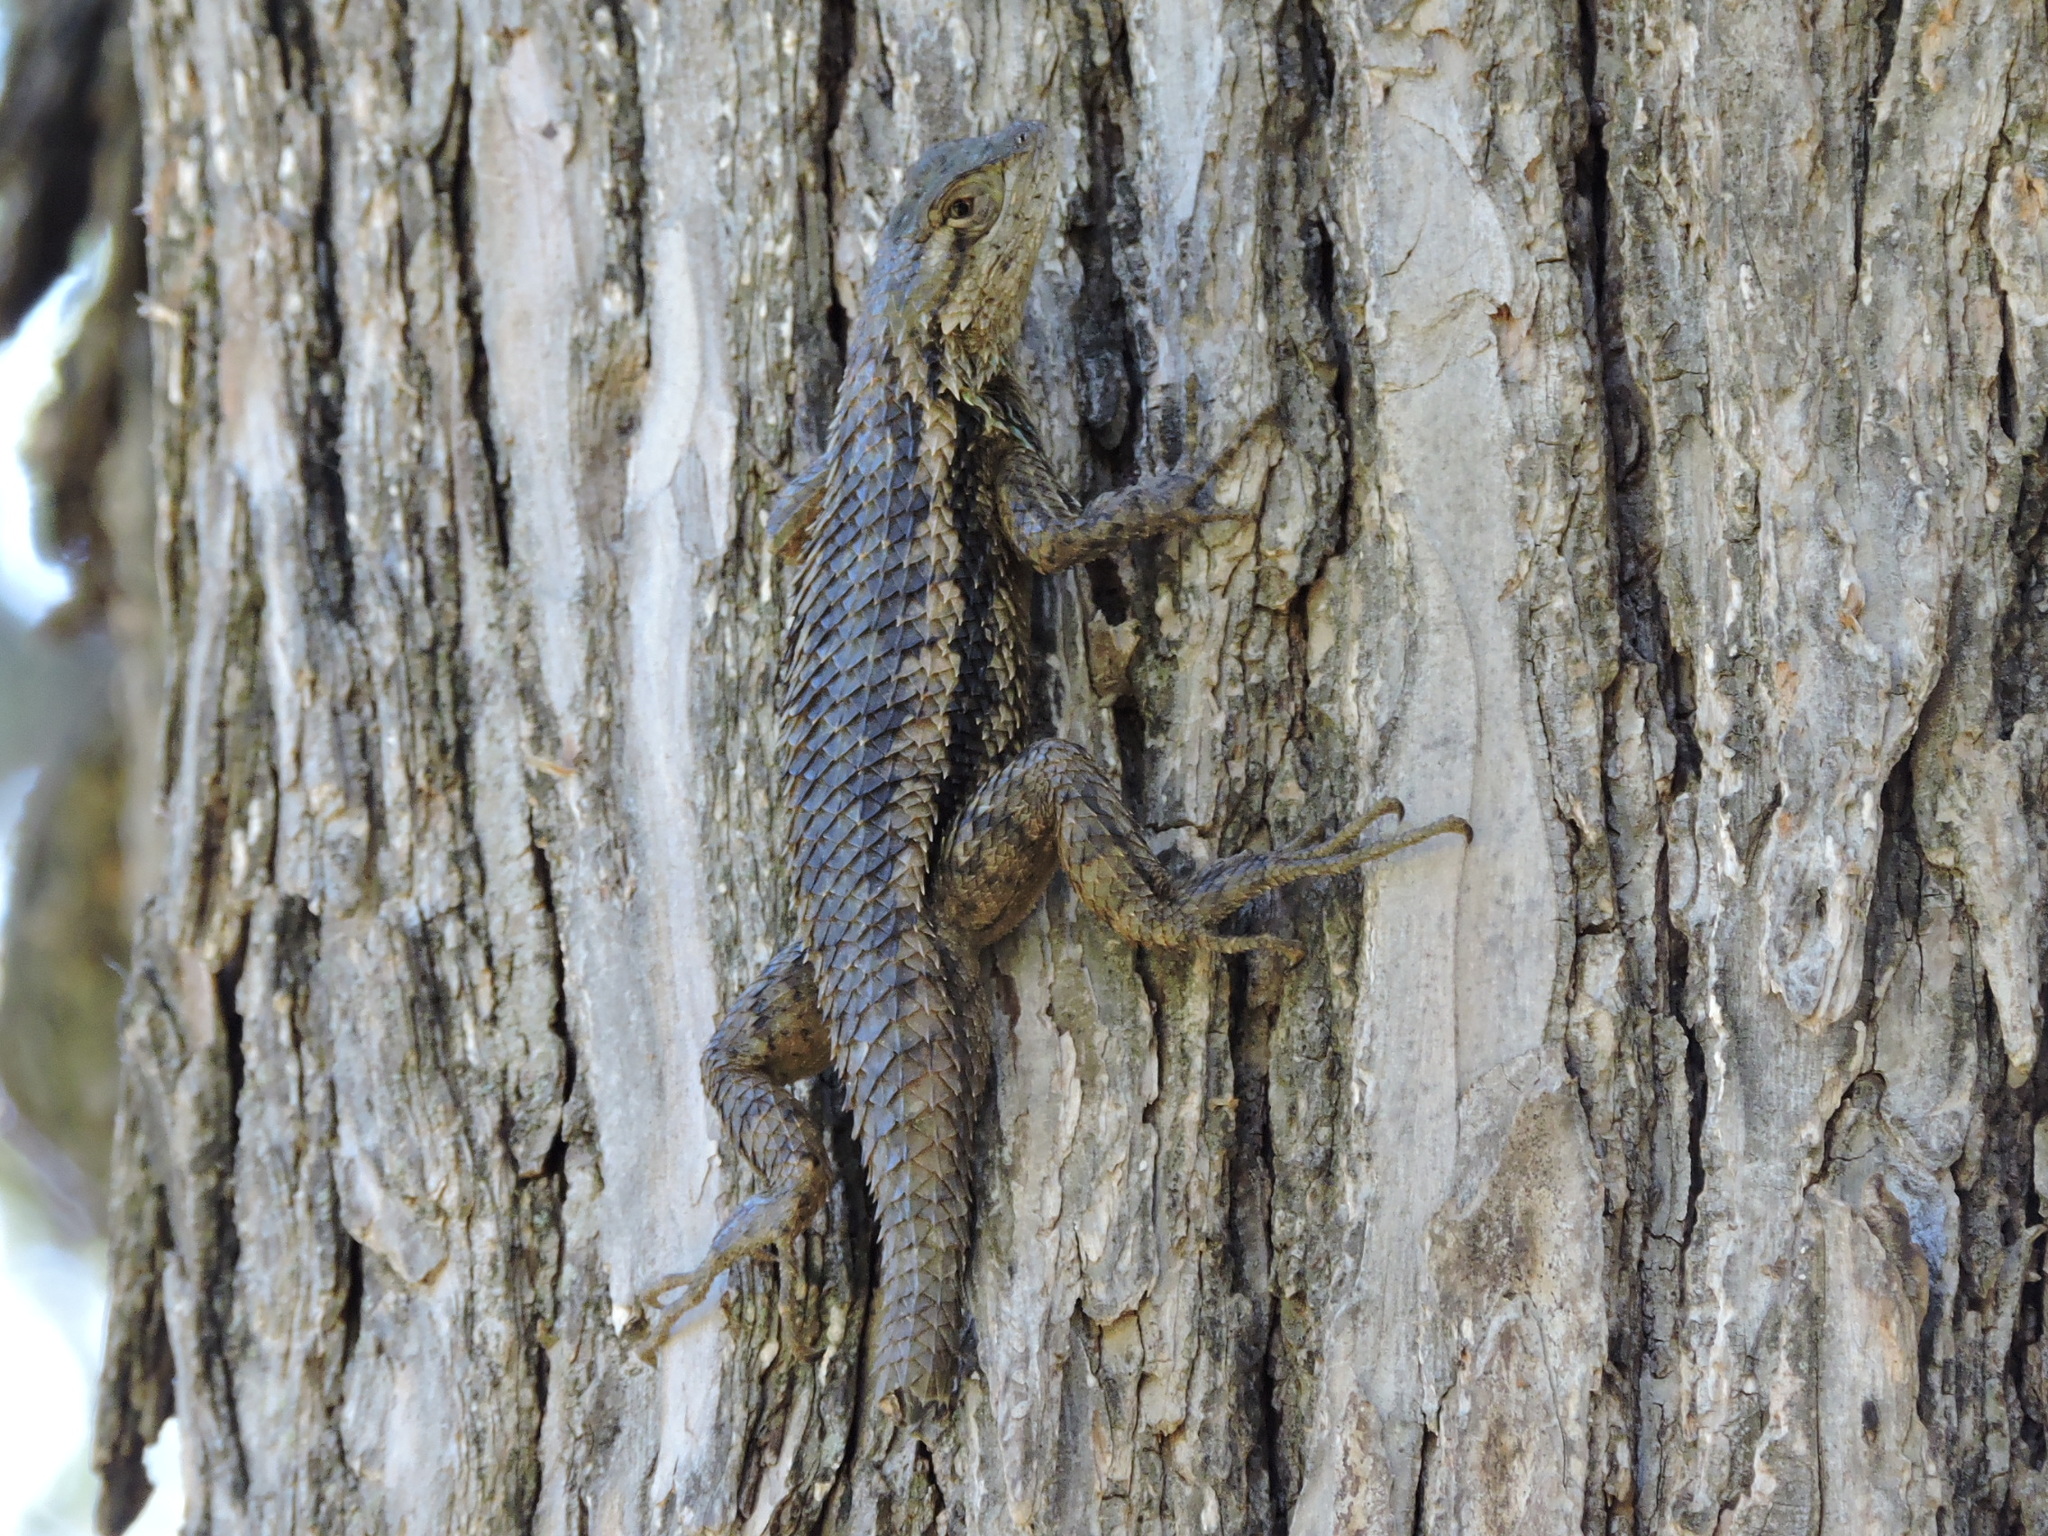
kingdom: Animalia
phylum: Chordata
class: Squamata
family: Phrynosomatidae
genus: Sceloporus
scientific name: Sceloporus olivaceus
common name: Texas spiny lizard
